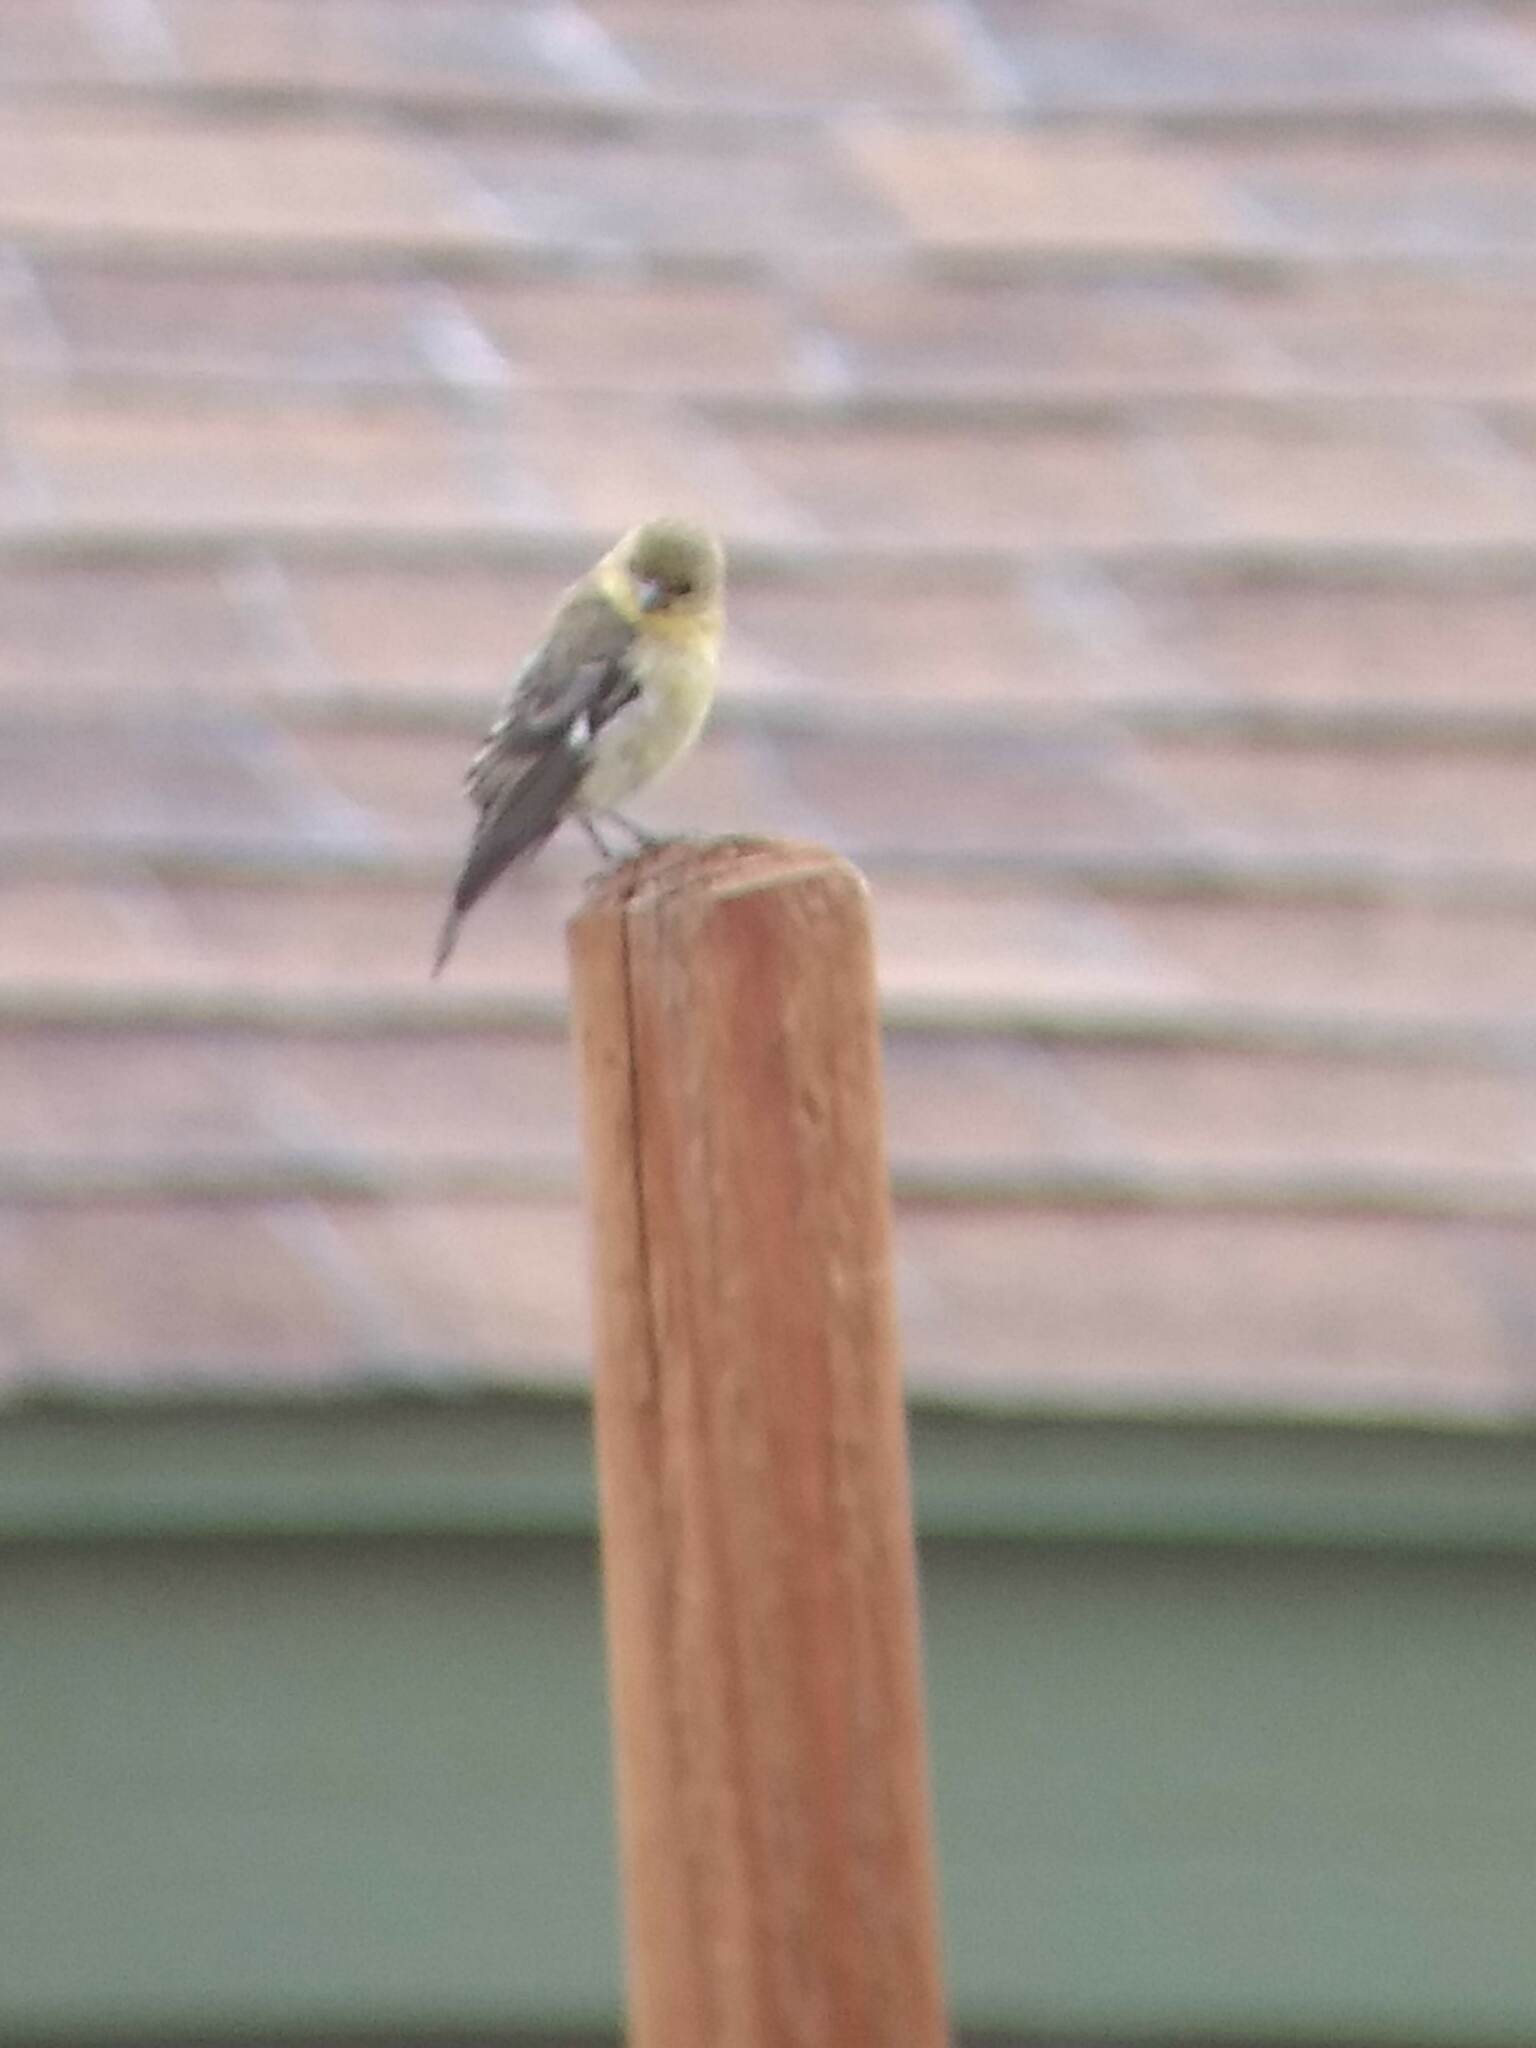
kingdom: Animalia
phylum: Chordata
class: Aves
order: Passeriformes
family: Fringillidae
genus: Spinus
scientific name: Spinus psaltria
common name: Lesser goldfinch
